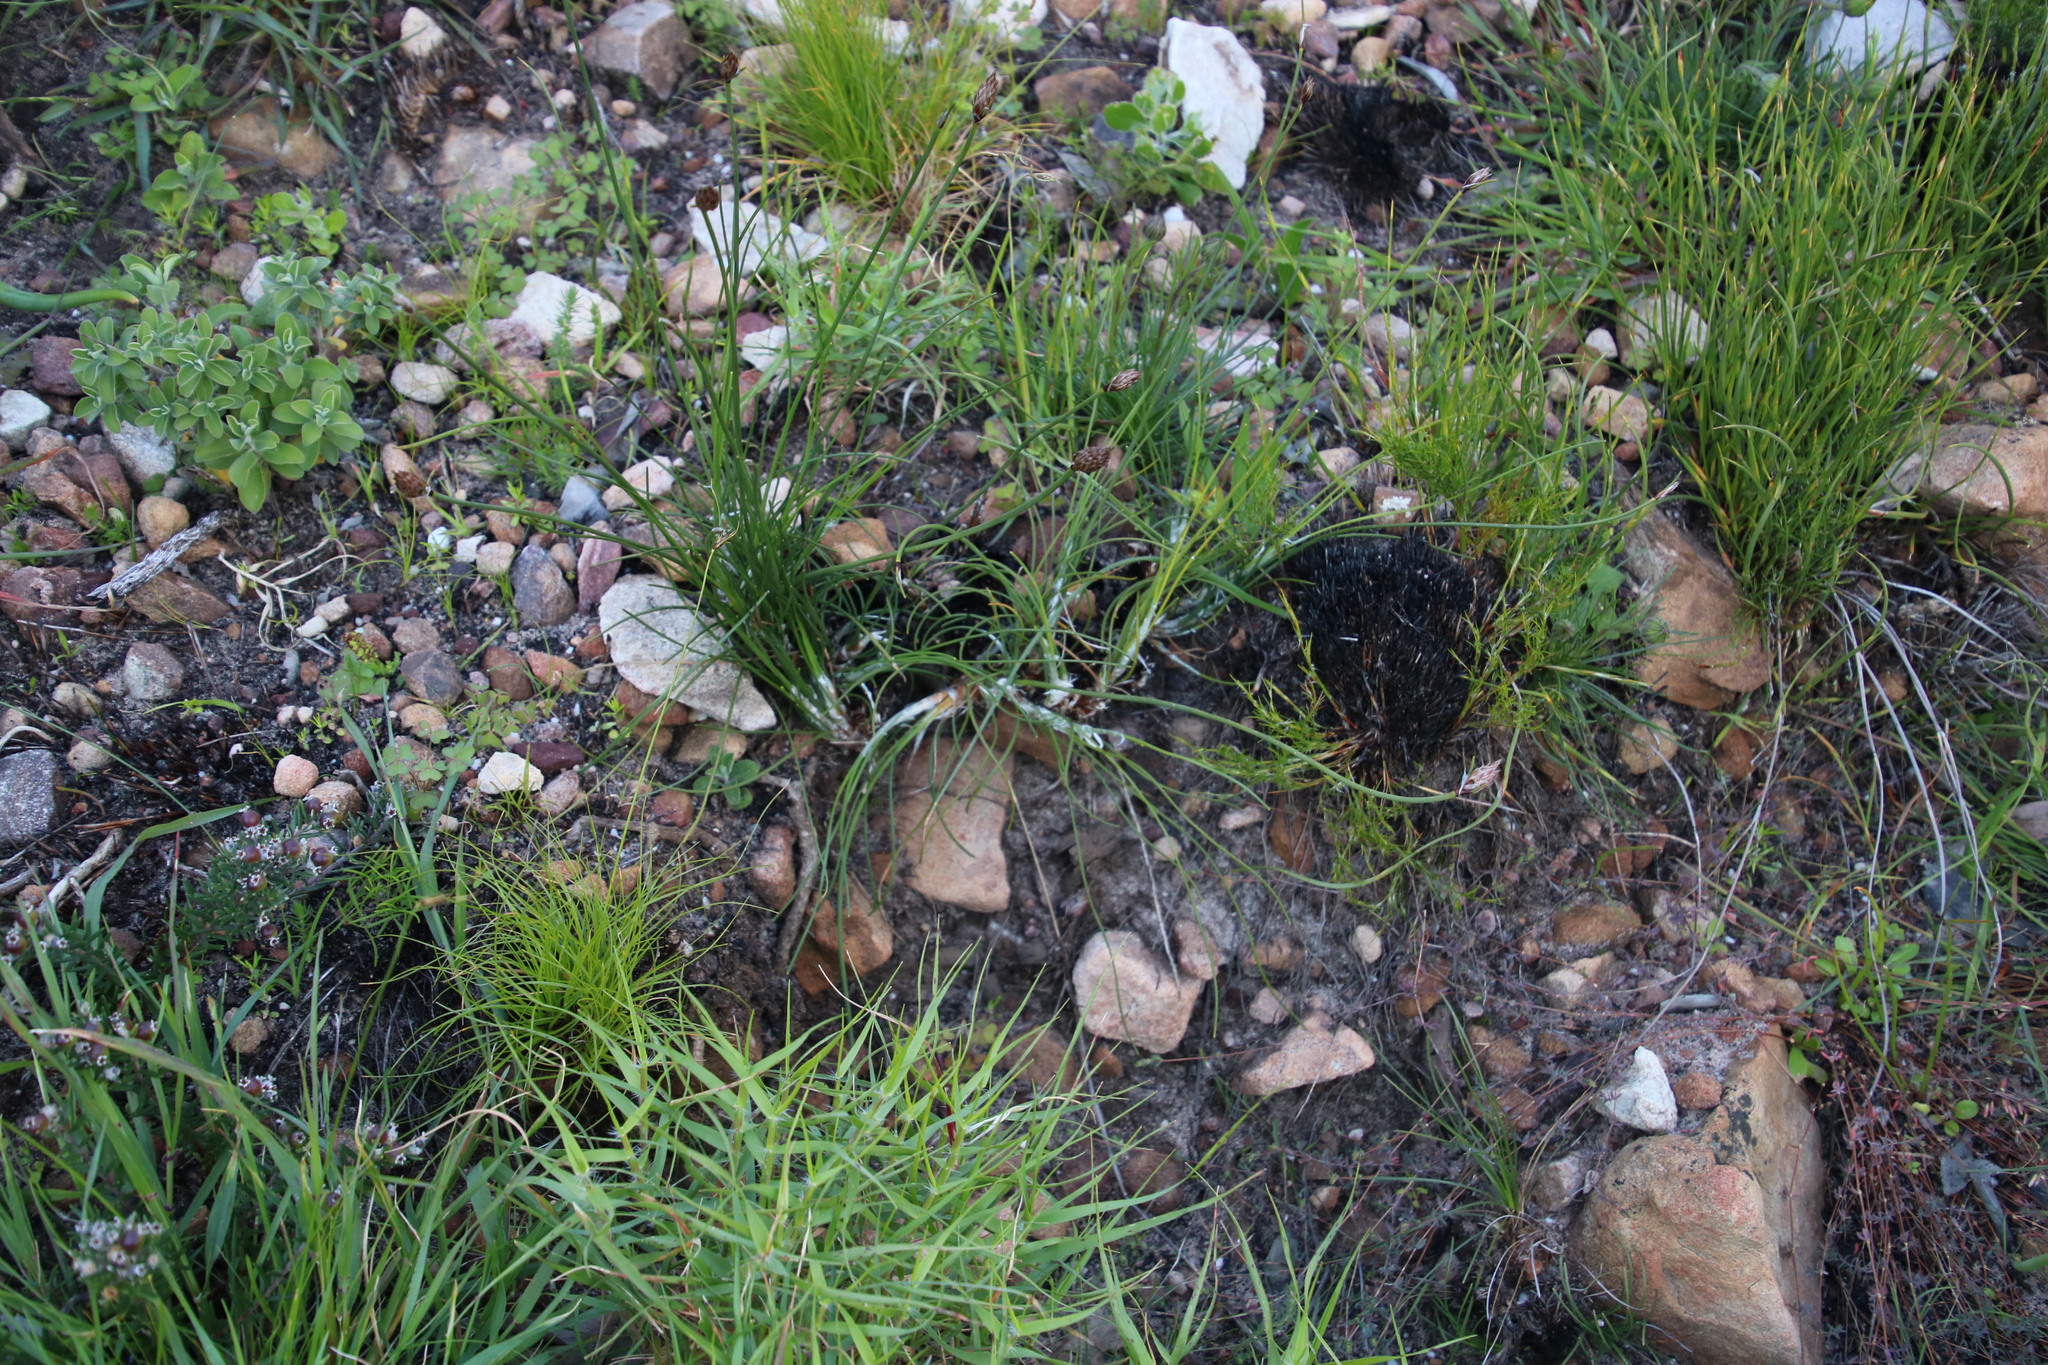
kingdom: Plantae
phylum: Tracheophyta
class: Liliopsida
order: Poales
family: Cyperaceae
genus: Ficinia
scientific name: Ficinia deusta
